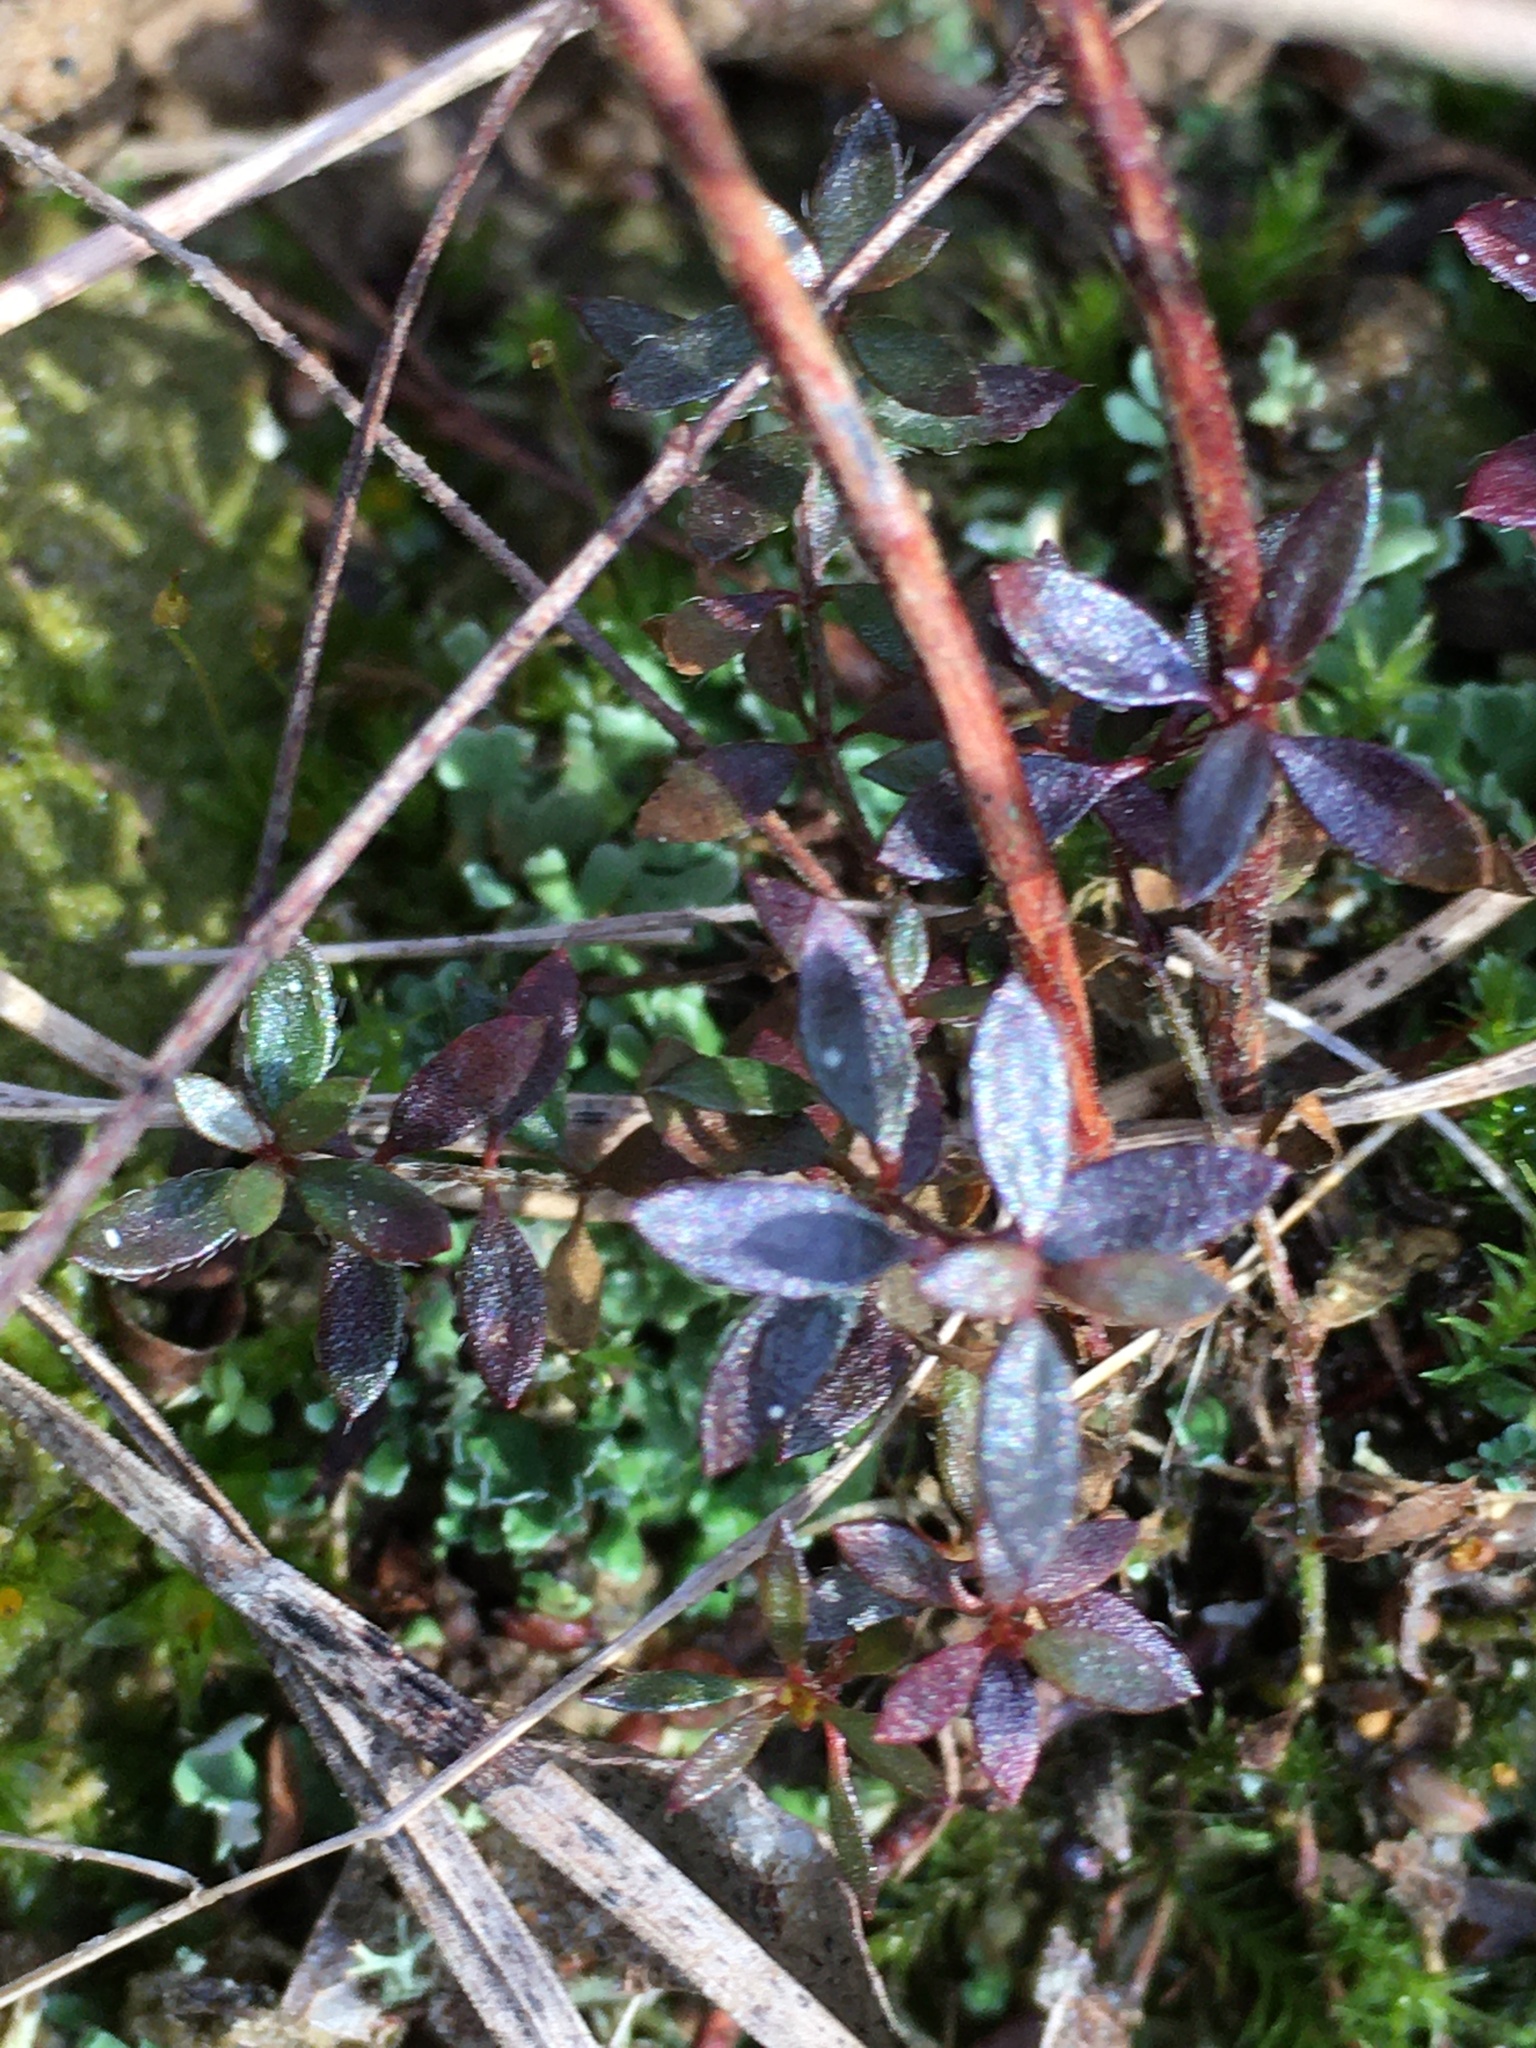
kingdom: Plantae
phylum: Tracheophyta
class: Magnoliopsida
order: Malvales
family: Cistaceae
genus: Lechea
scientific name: Lechea racemulosa
